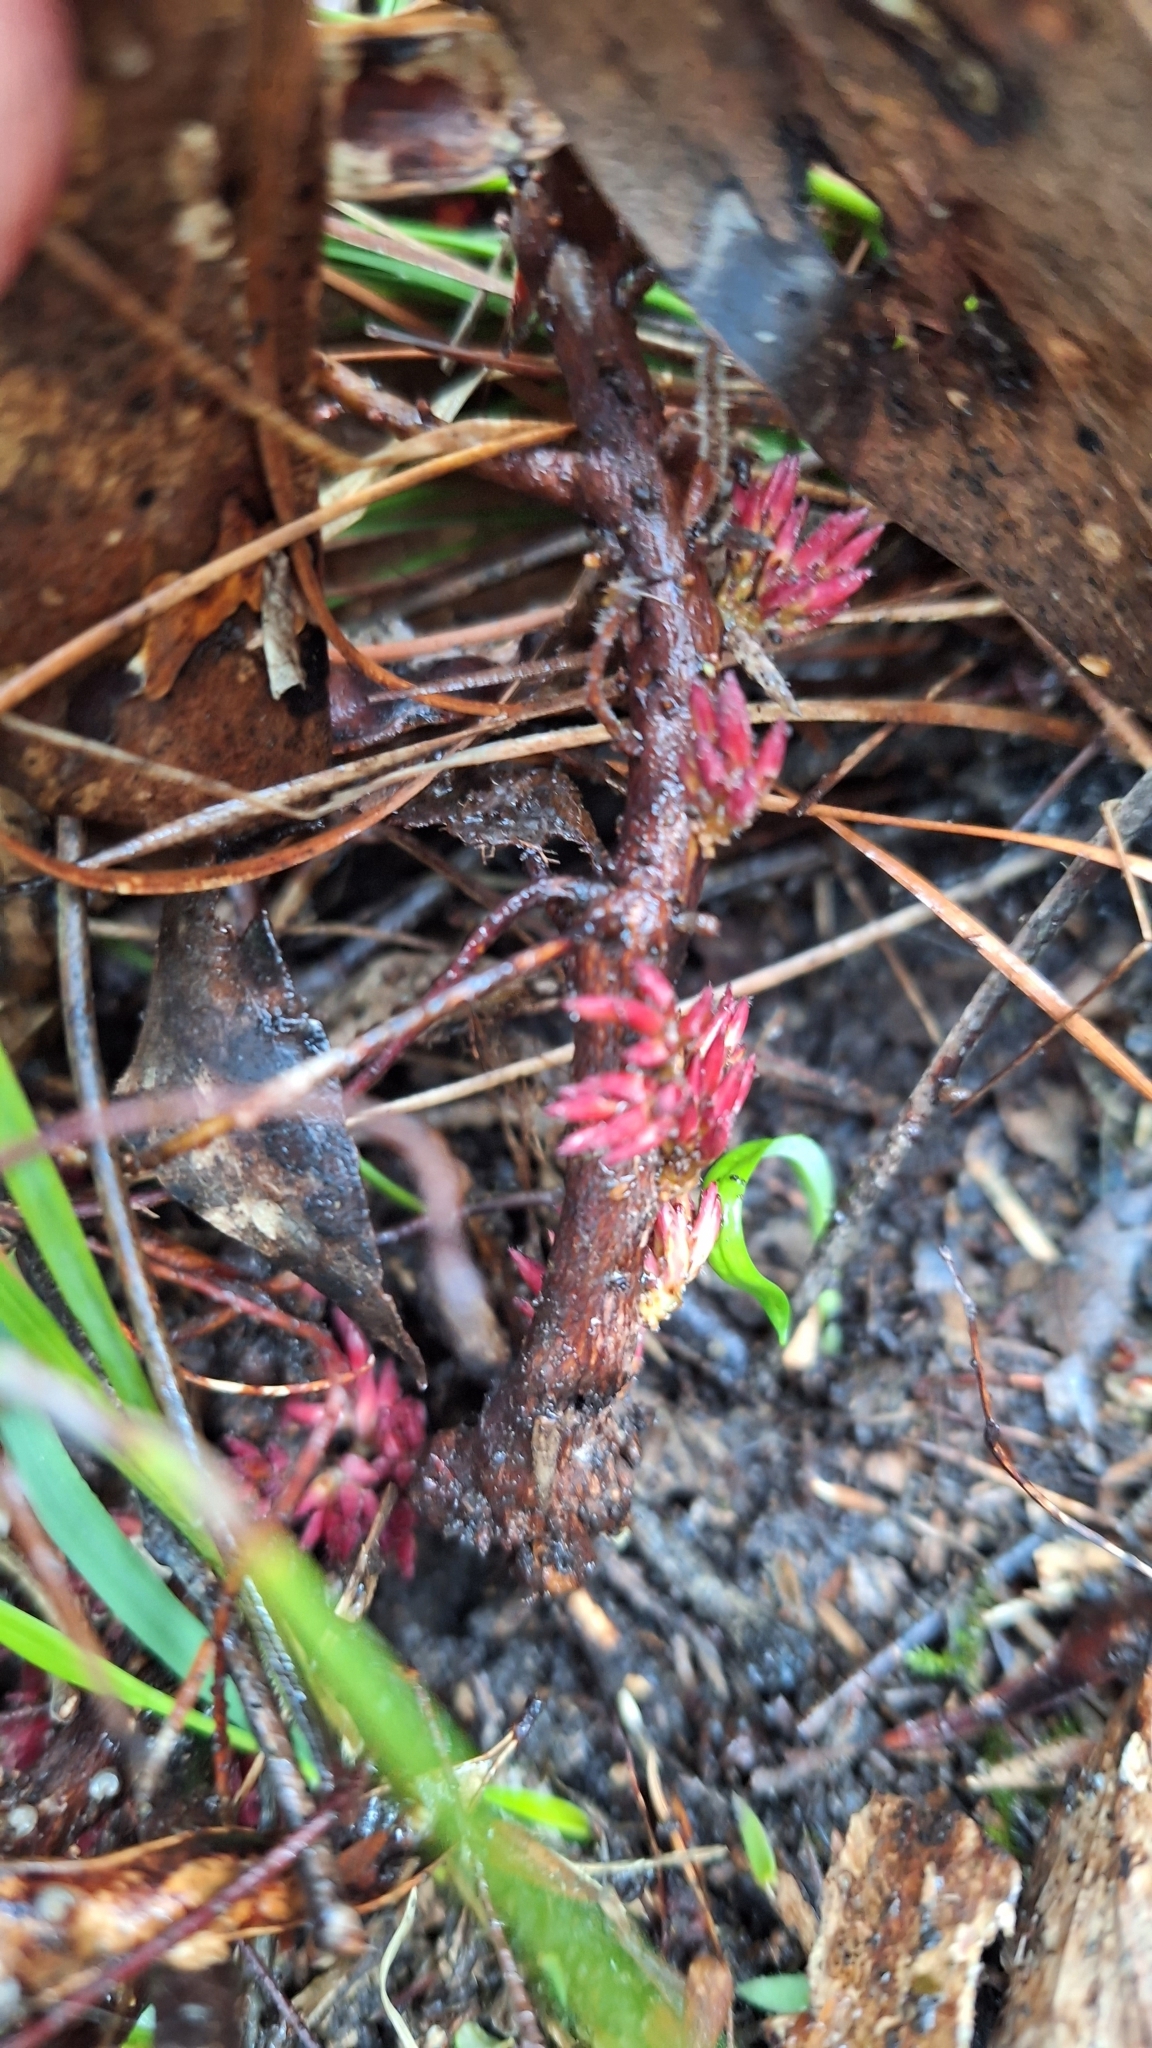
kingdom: Plantae
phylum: Tracheophyta
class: Magnoliopsida
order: Ericales
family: Ericaceae
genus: Acrotriche
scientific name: Acrotriche fasciculiflora
